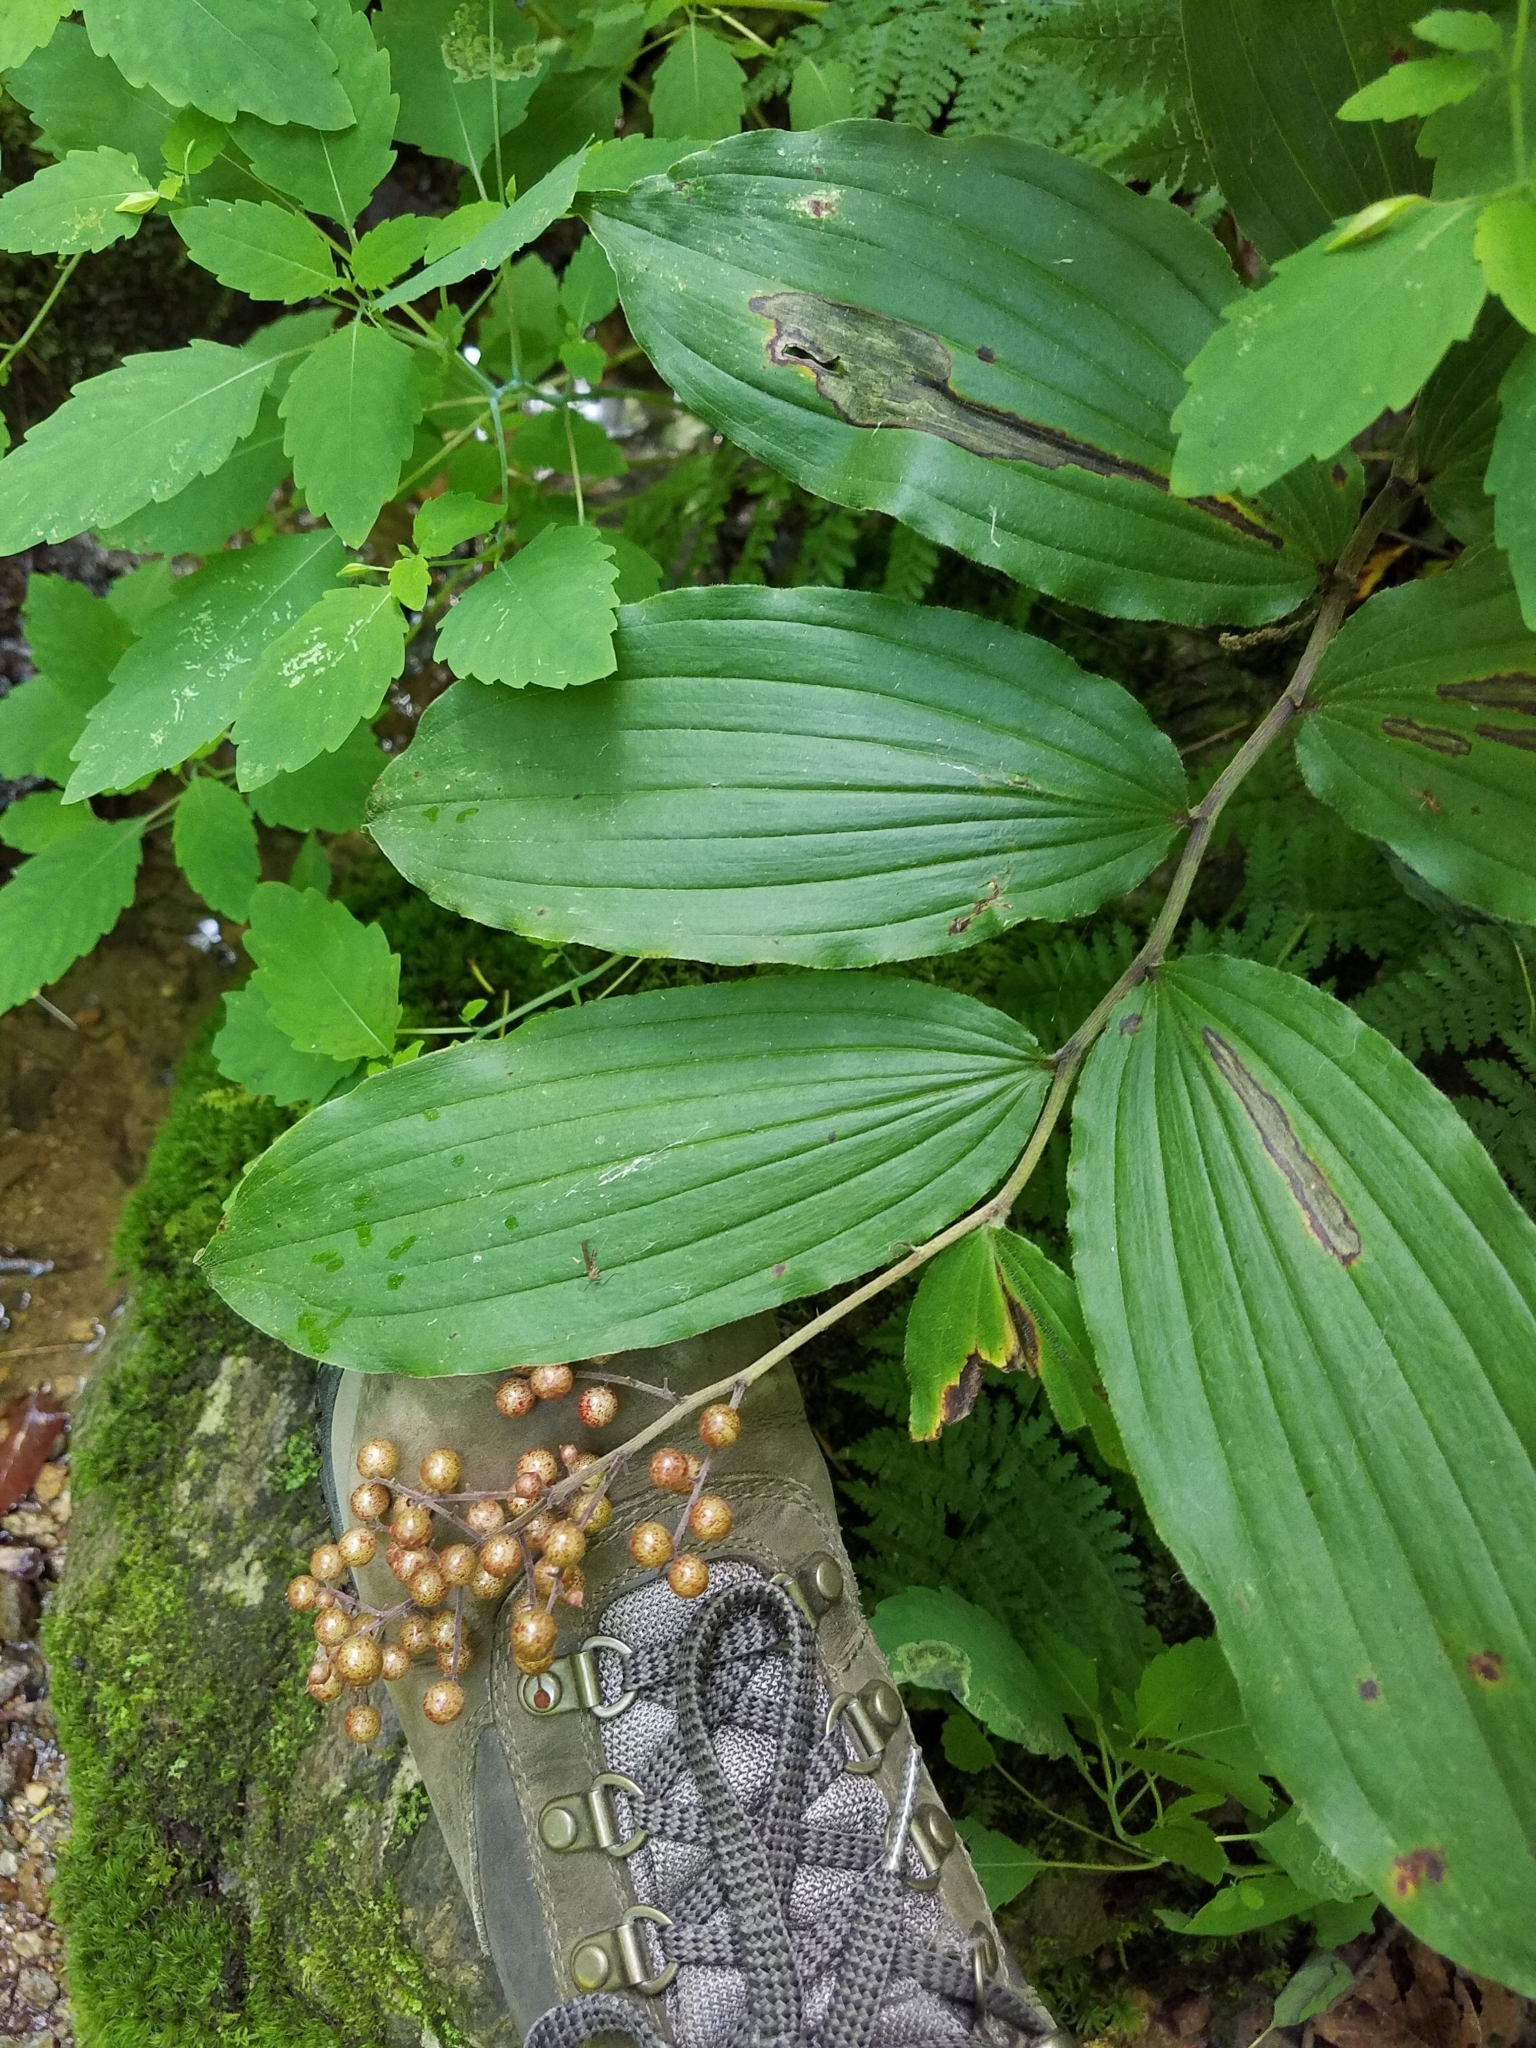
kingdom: Plantae
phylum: Tracheophyta
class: Liliopsida
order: Asparagales
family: Asparagaceae
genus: Maianthemum
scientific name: Maianthemum racemosum
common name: False spikenard
